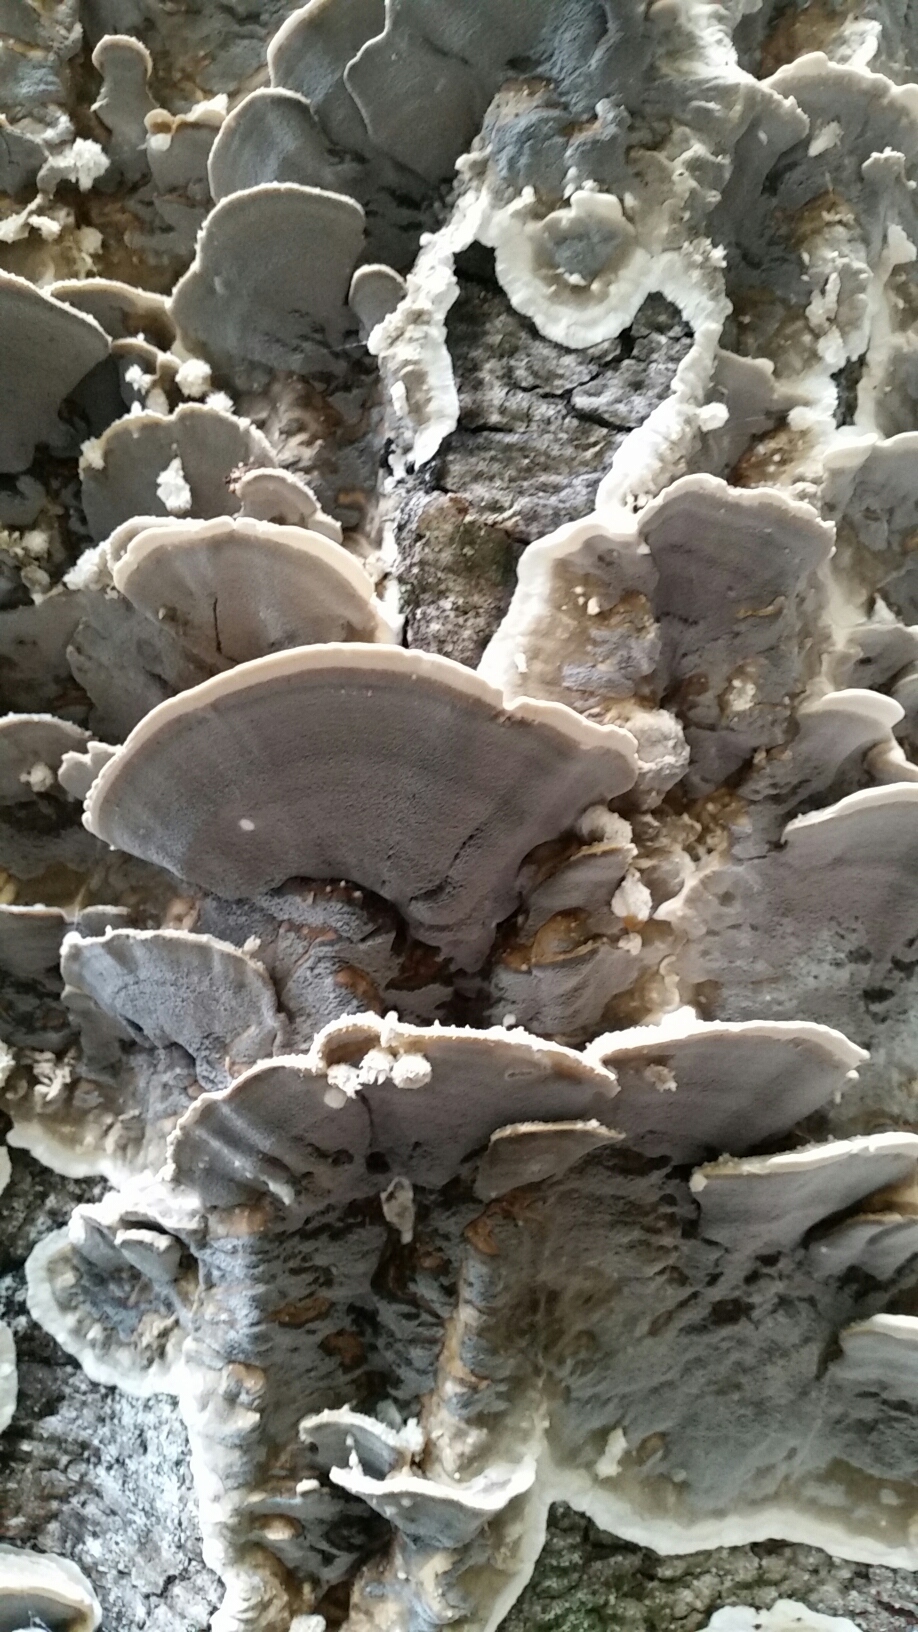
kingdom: Fungi
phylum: Basidiomycota
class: Agaricomycetes
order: Polyporales
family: Phanerochaetaceae
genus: Bjerkandera
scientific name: Bjerkandera adusta
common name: Smoky bracket
